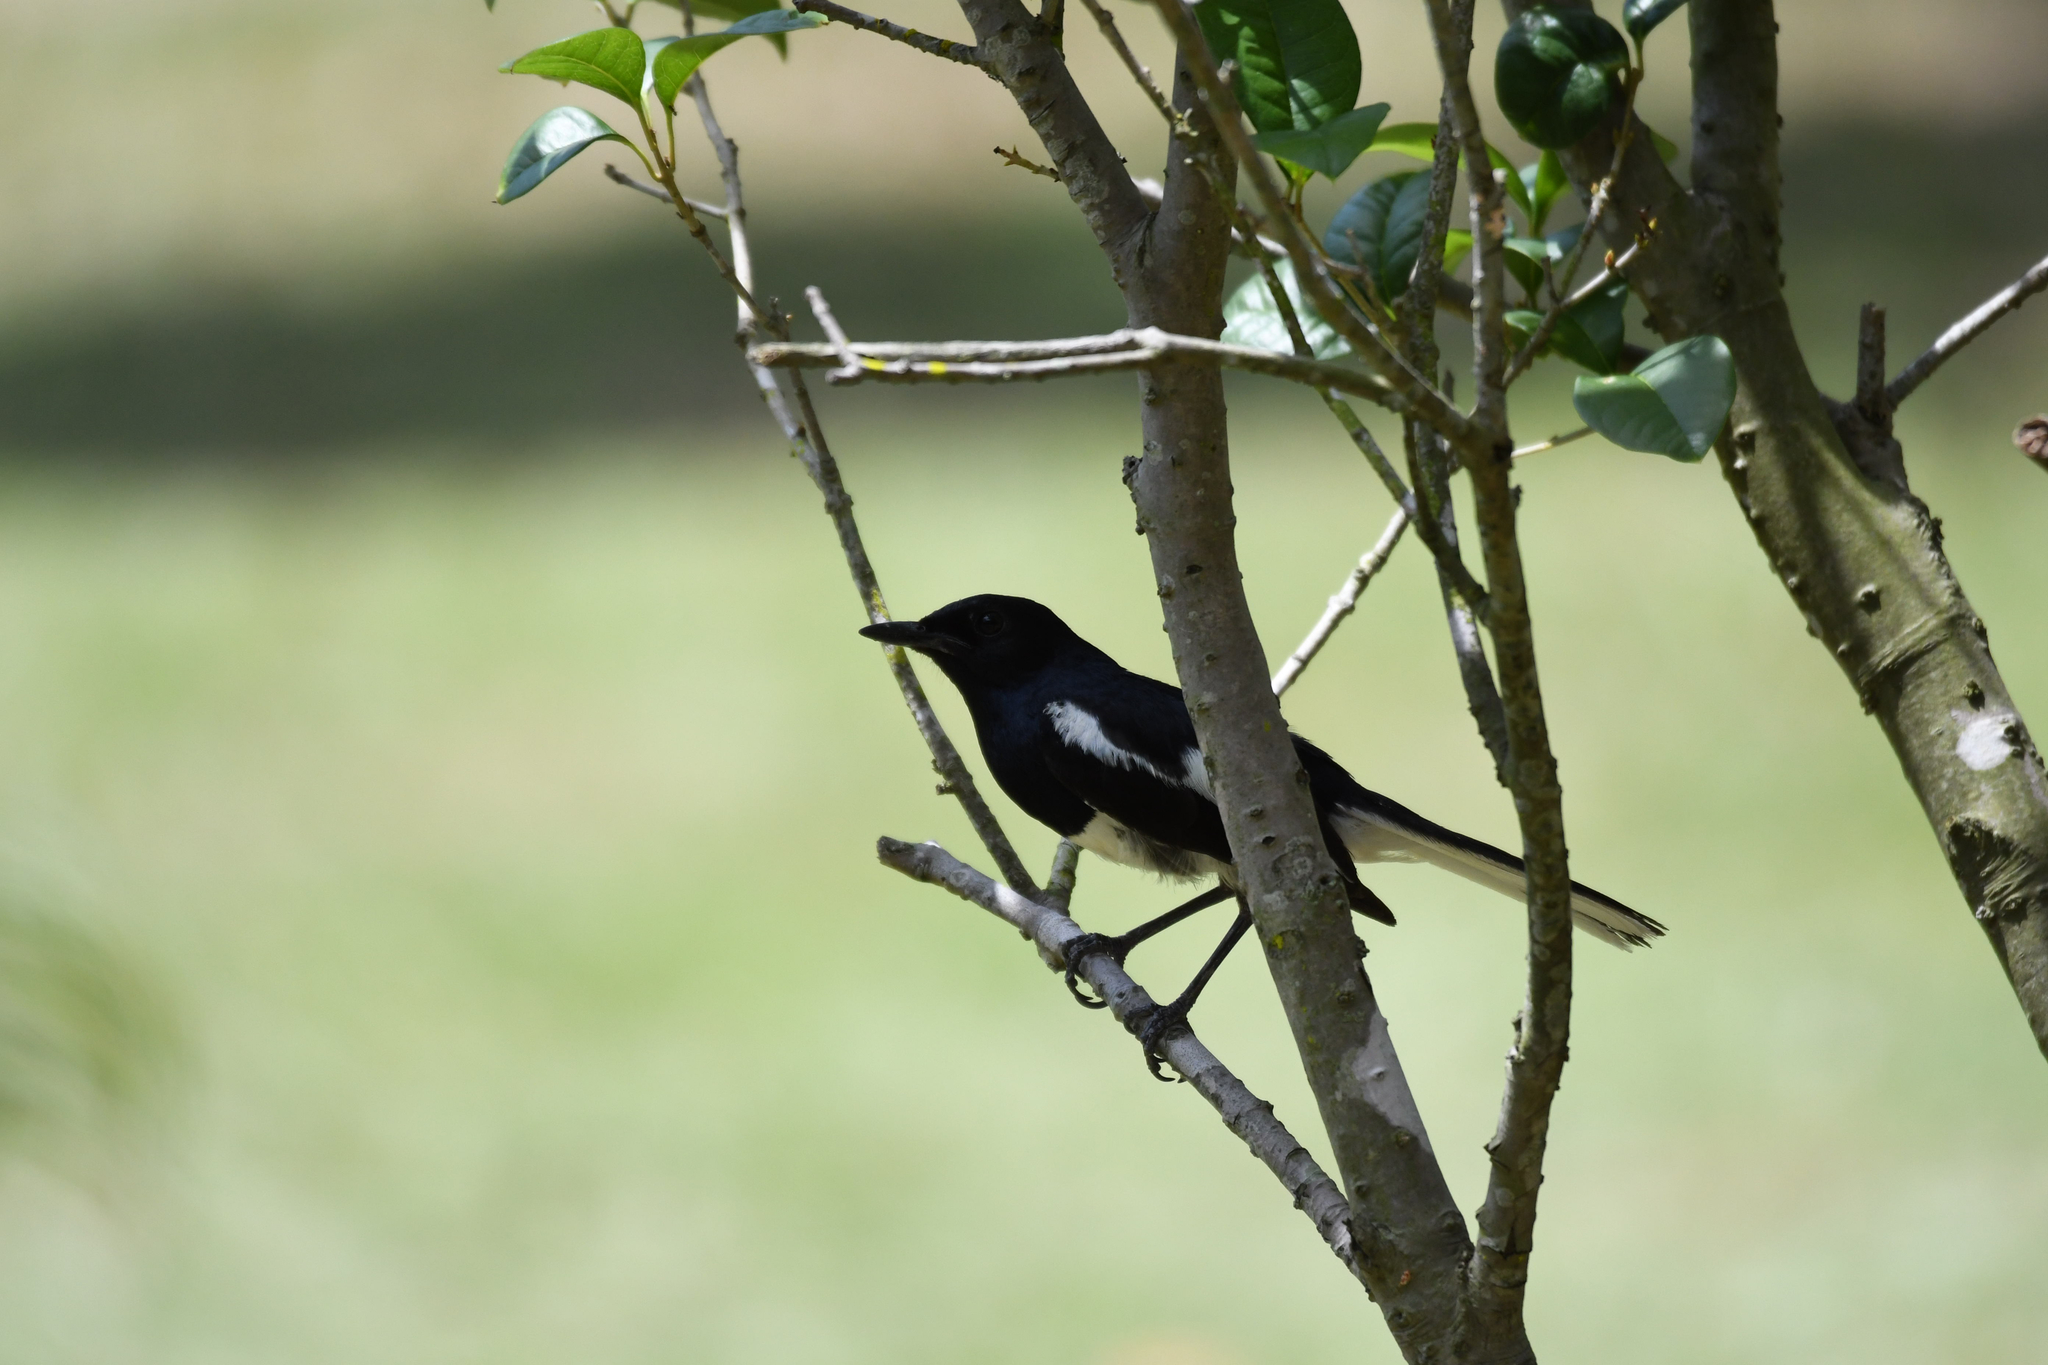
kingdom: Animalia
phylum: Chordata
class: Aves
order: Passeriformes
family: Muscicapidae
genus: Copsychus
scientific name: Copsychus saularis
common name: Oriental magpie-robin
